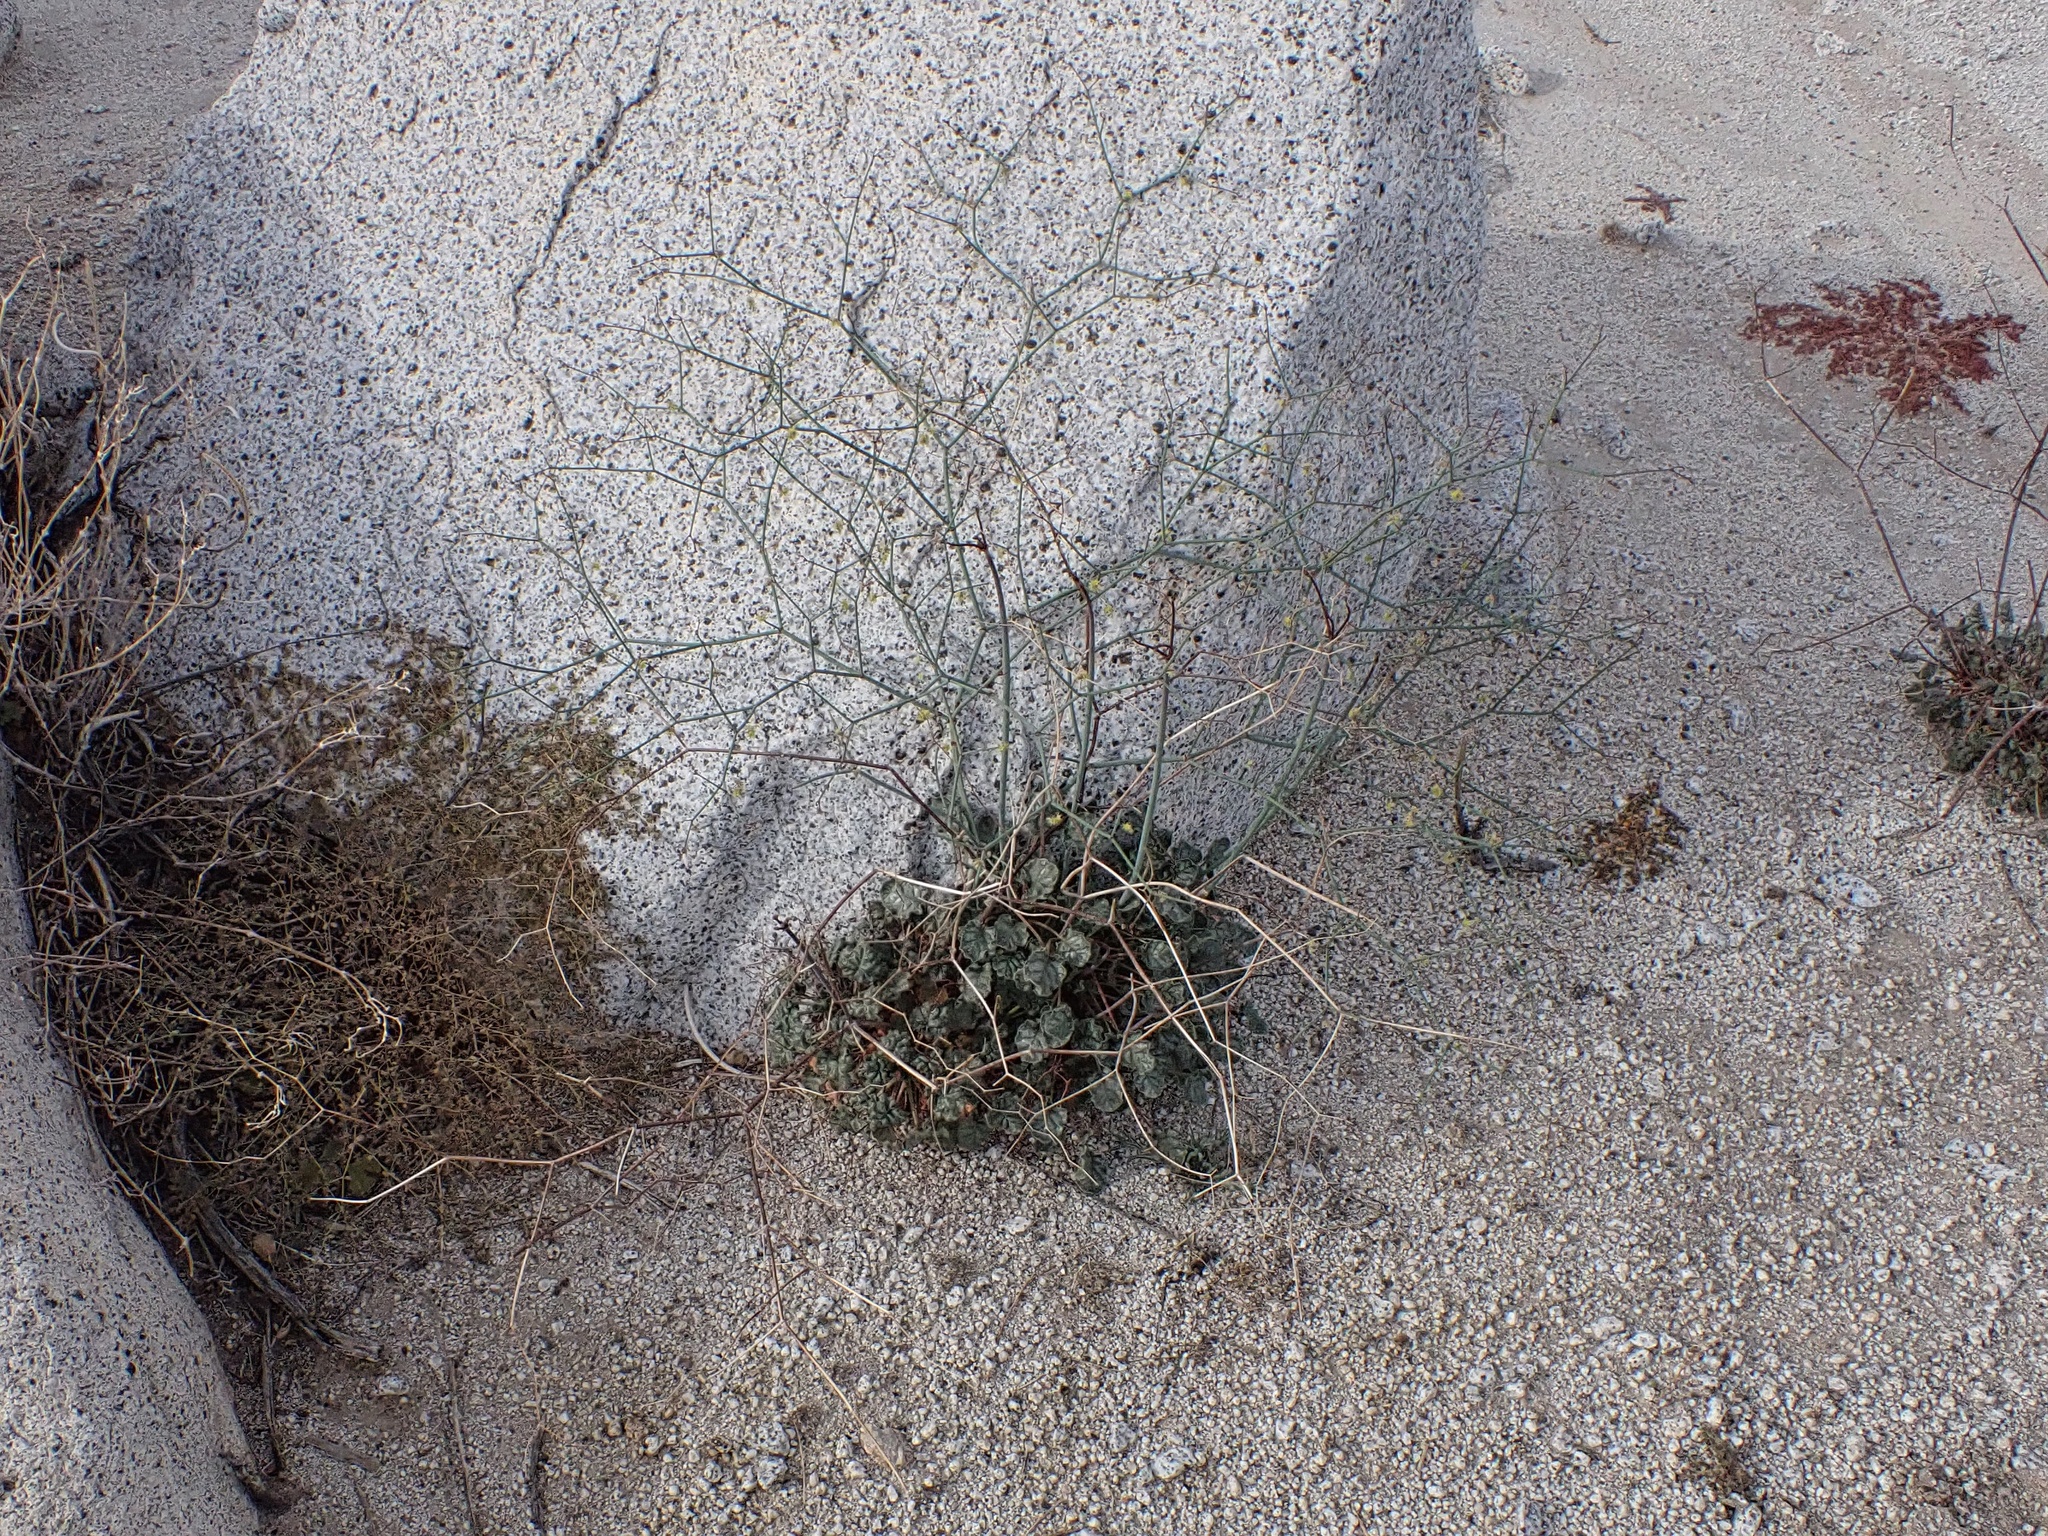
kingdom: Plantae
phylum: Tracheophyta
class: Magnoliopsida
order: Caryophyllales
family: Polygonaceae
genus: Eriogonum
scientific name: Eriogonum inflatum
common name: Desert trumpet
